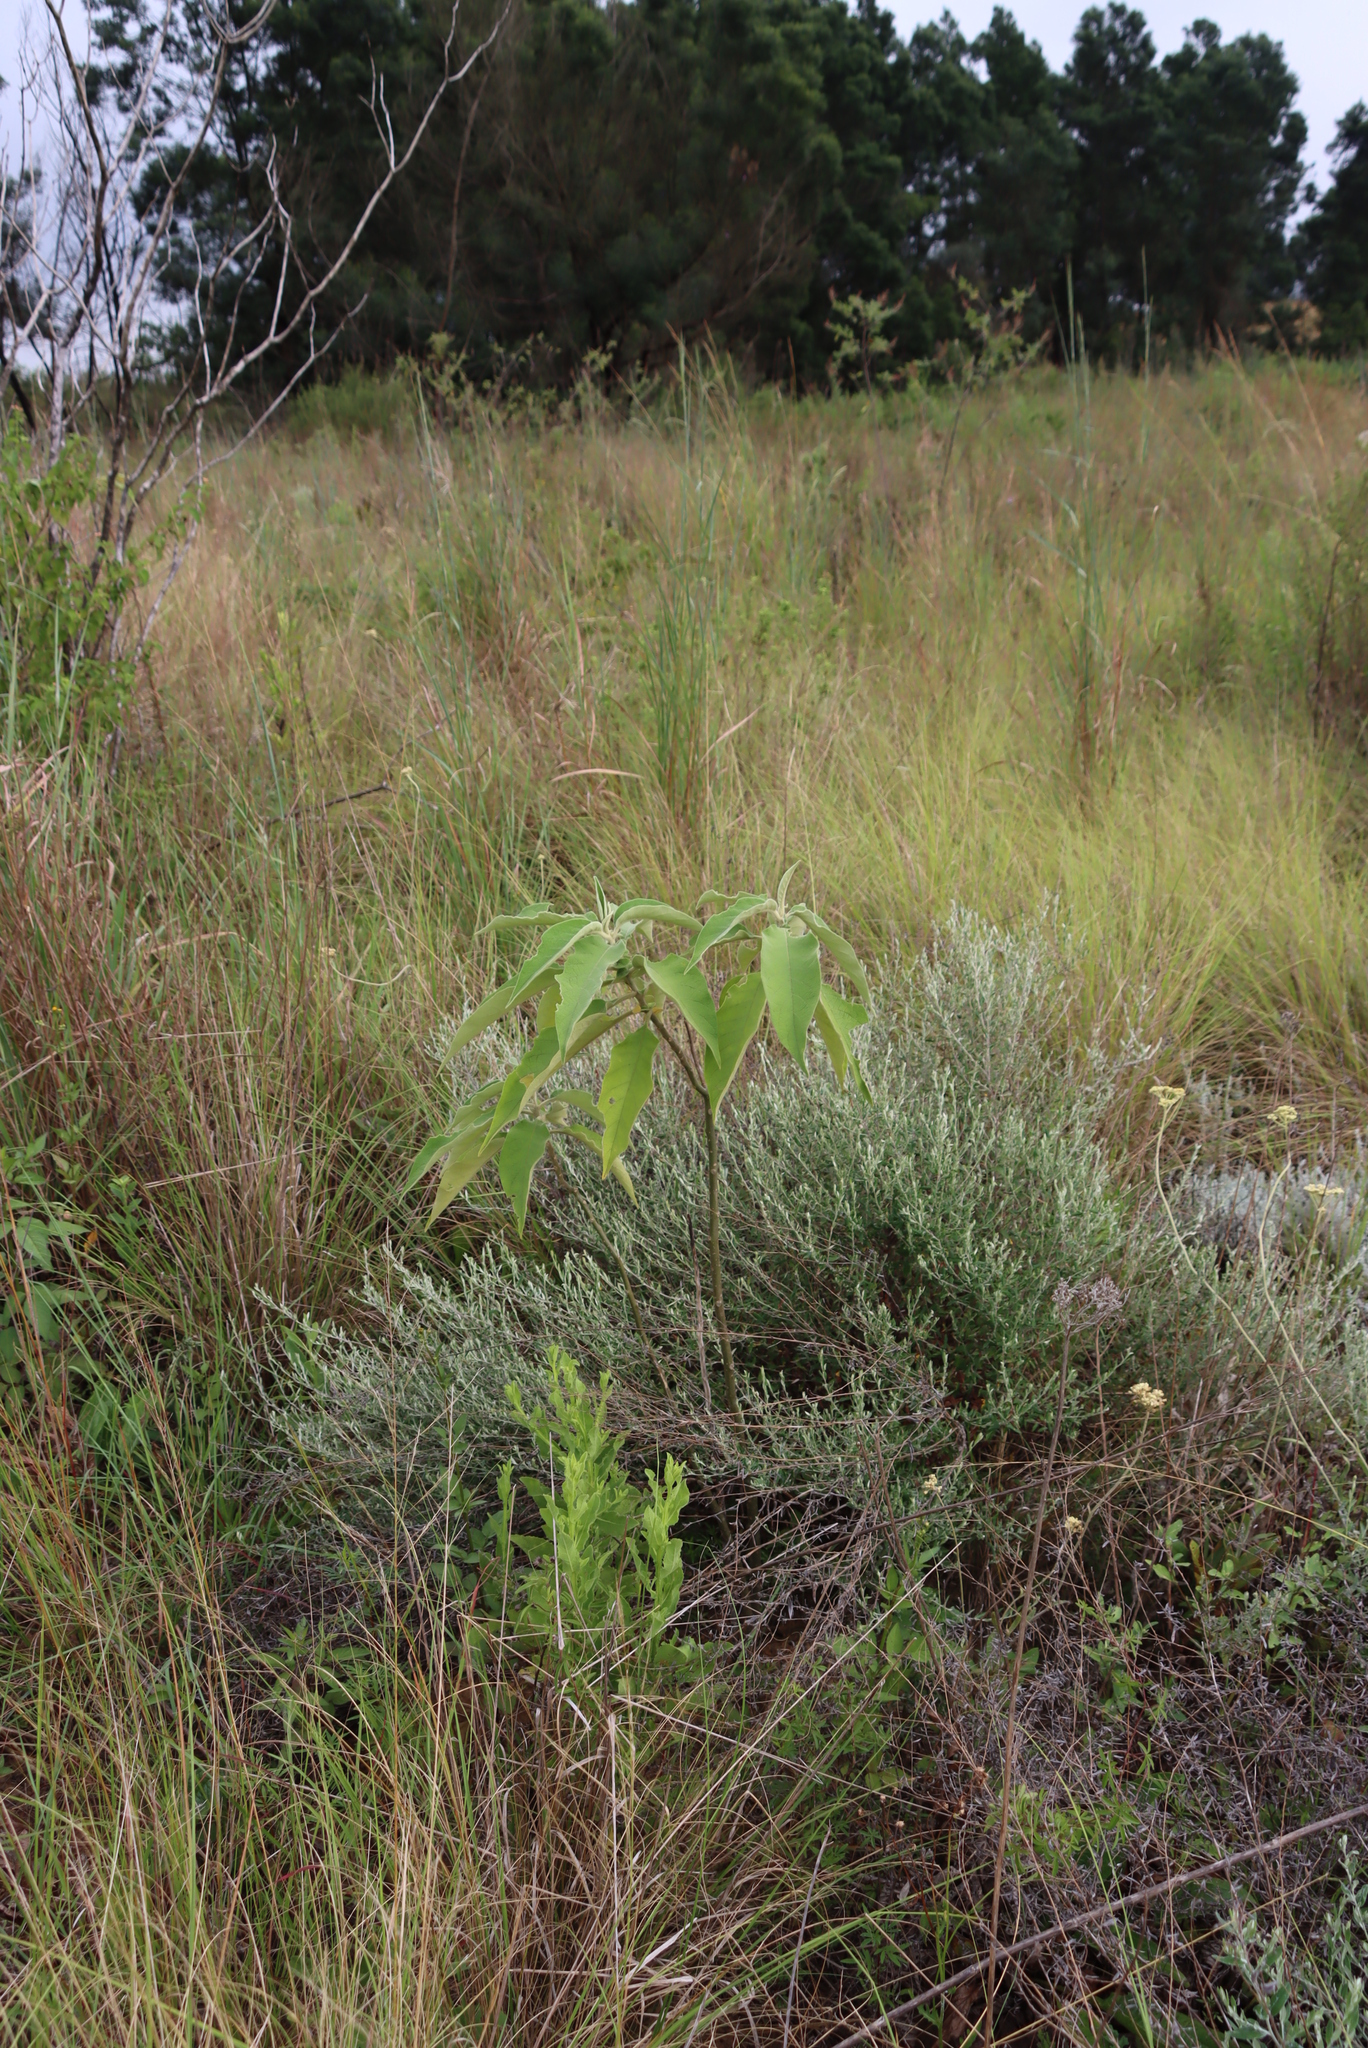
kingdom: Plantae
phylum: Tracheophyta
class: Magnoliopsida
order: Solanales
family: Solanaceae
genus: Solanum
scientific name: Solanum mauritianum
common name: Earleaf nightshade
